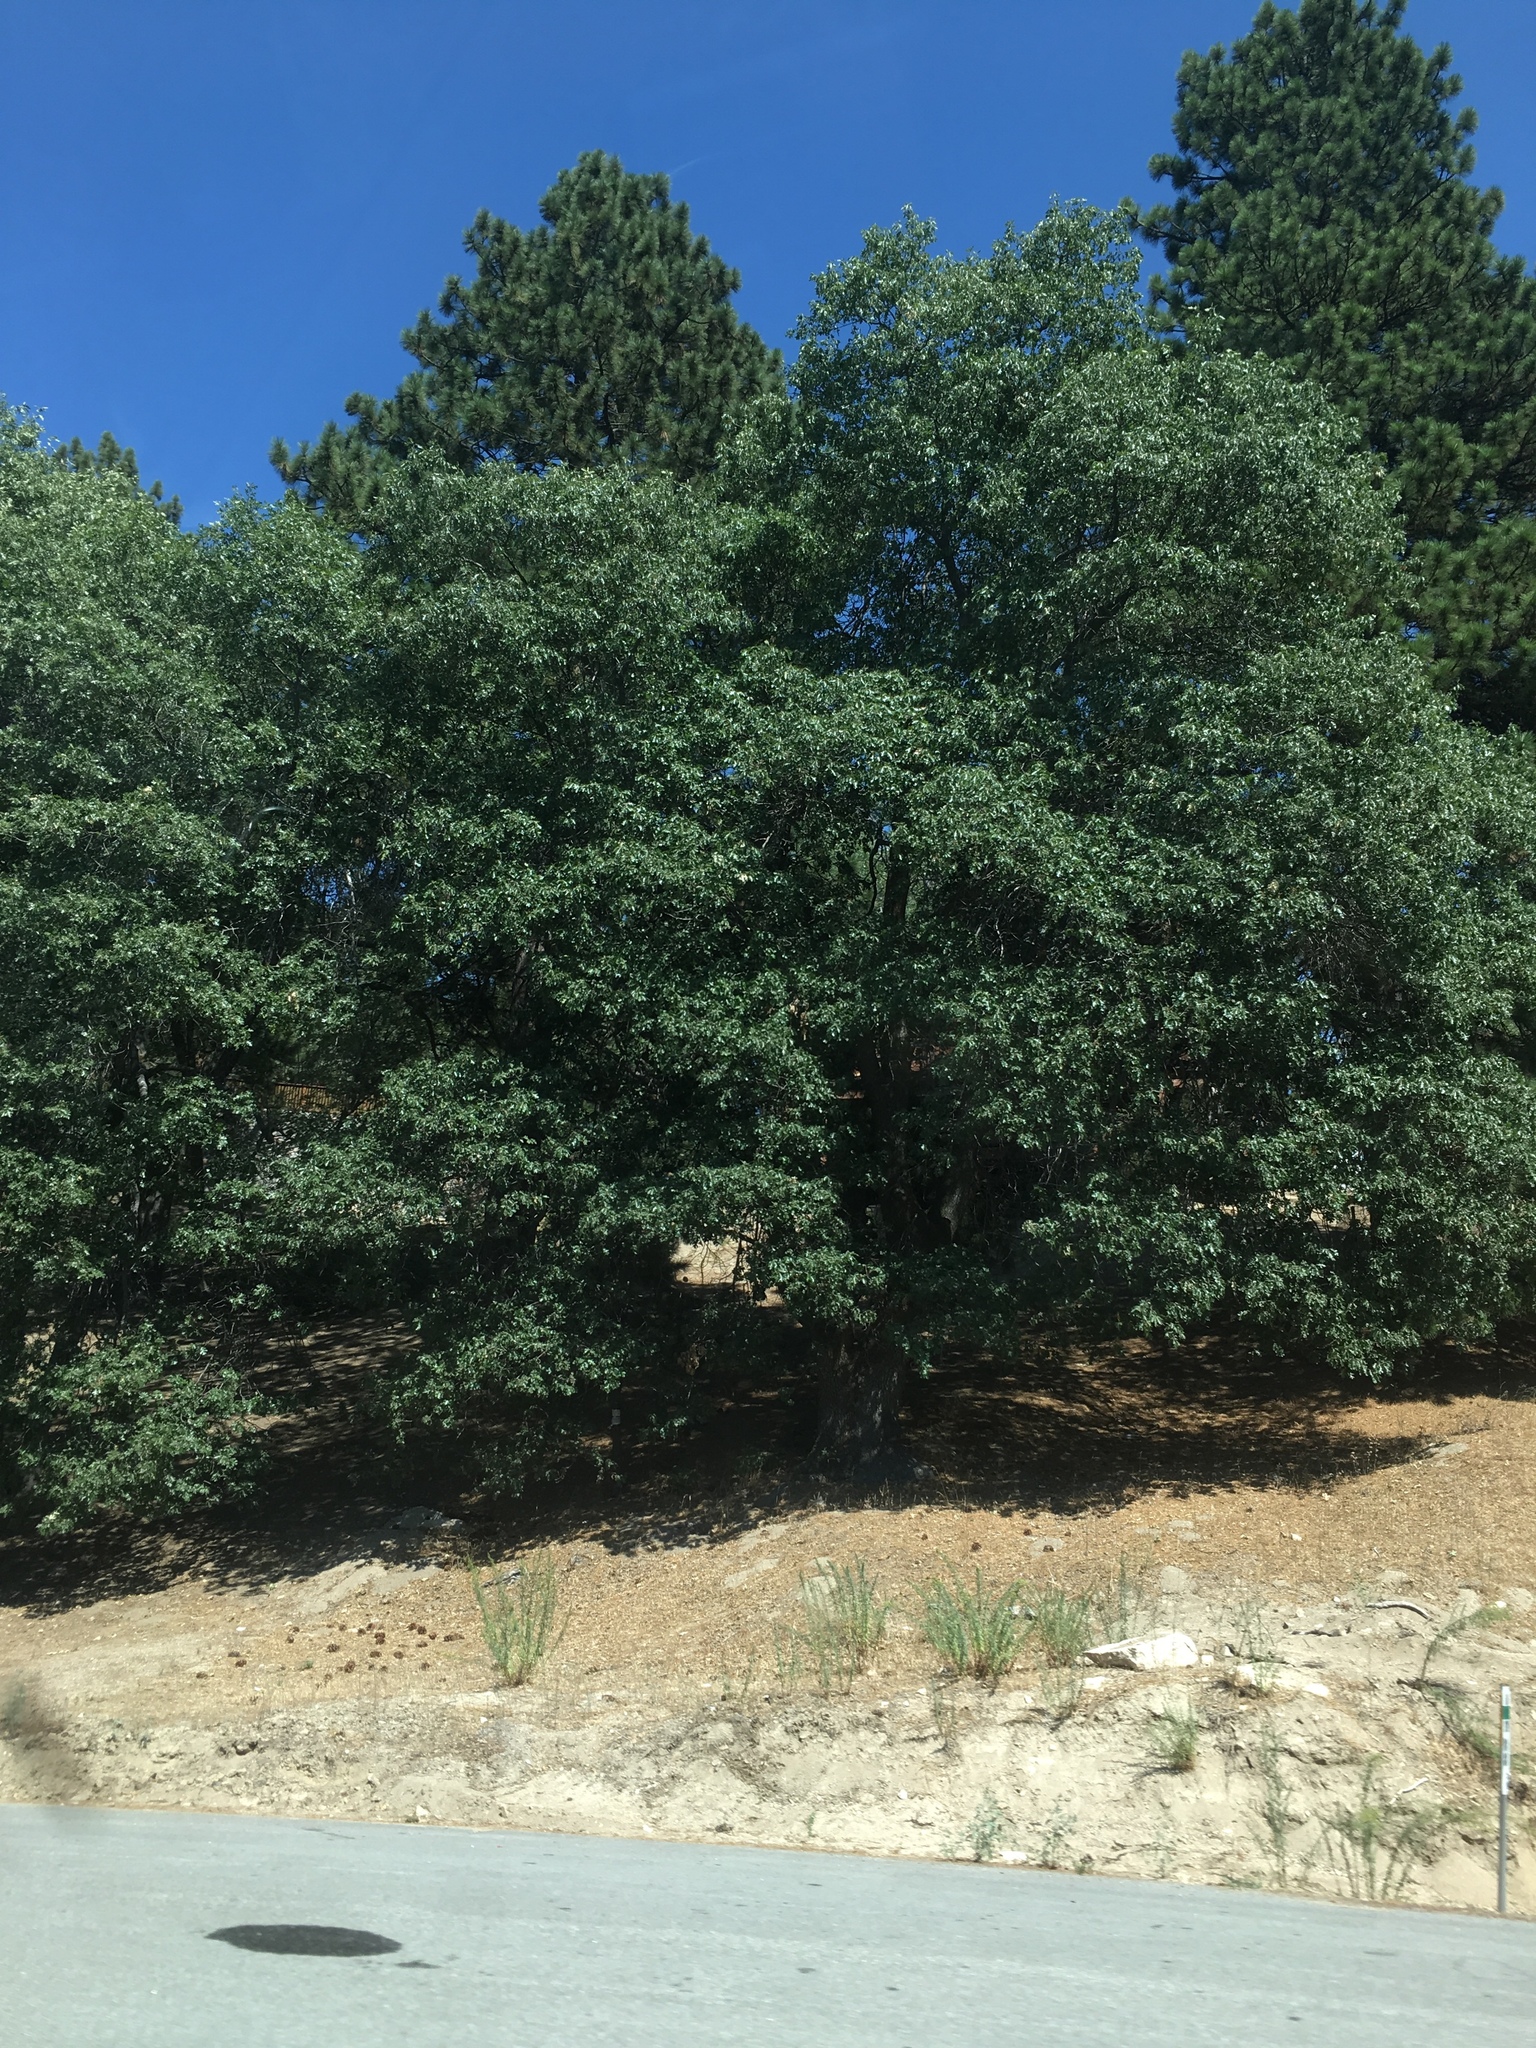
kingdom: Plantae
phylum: Tracheophyta
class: Magnoliopsida
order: Fagales
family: Fagaceae
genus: Quercus
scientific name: Quercus kelloggii
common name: California black oak
